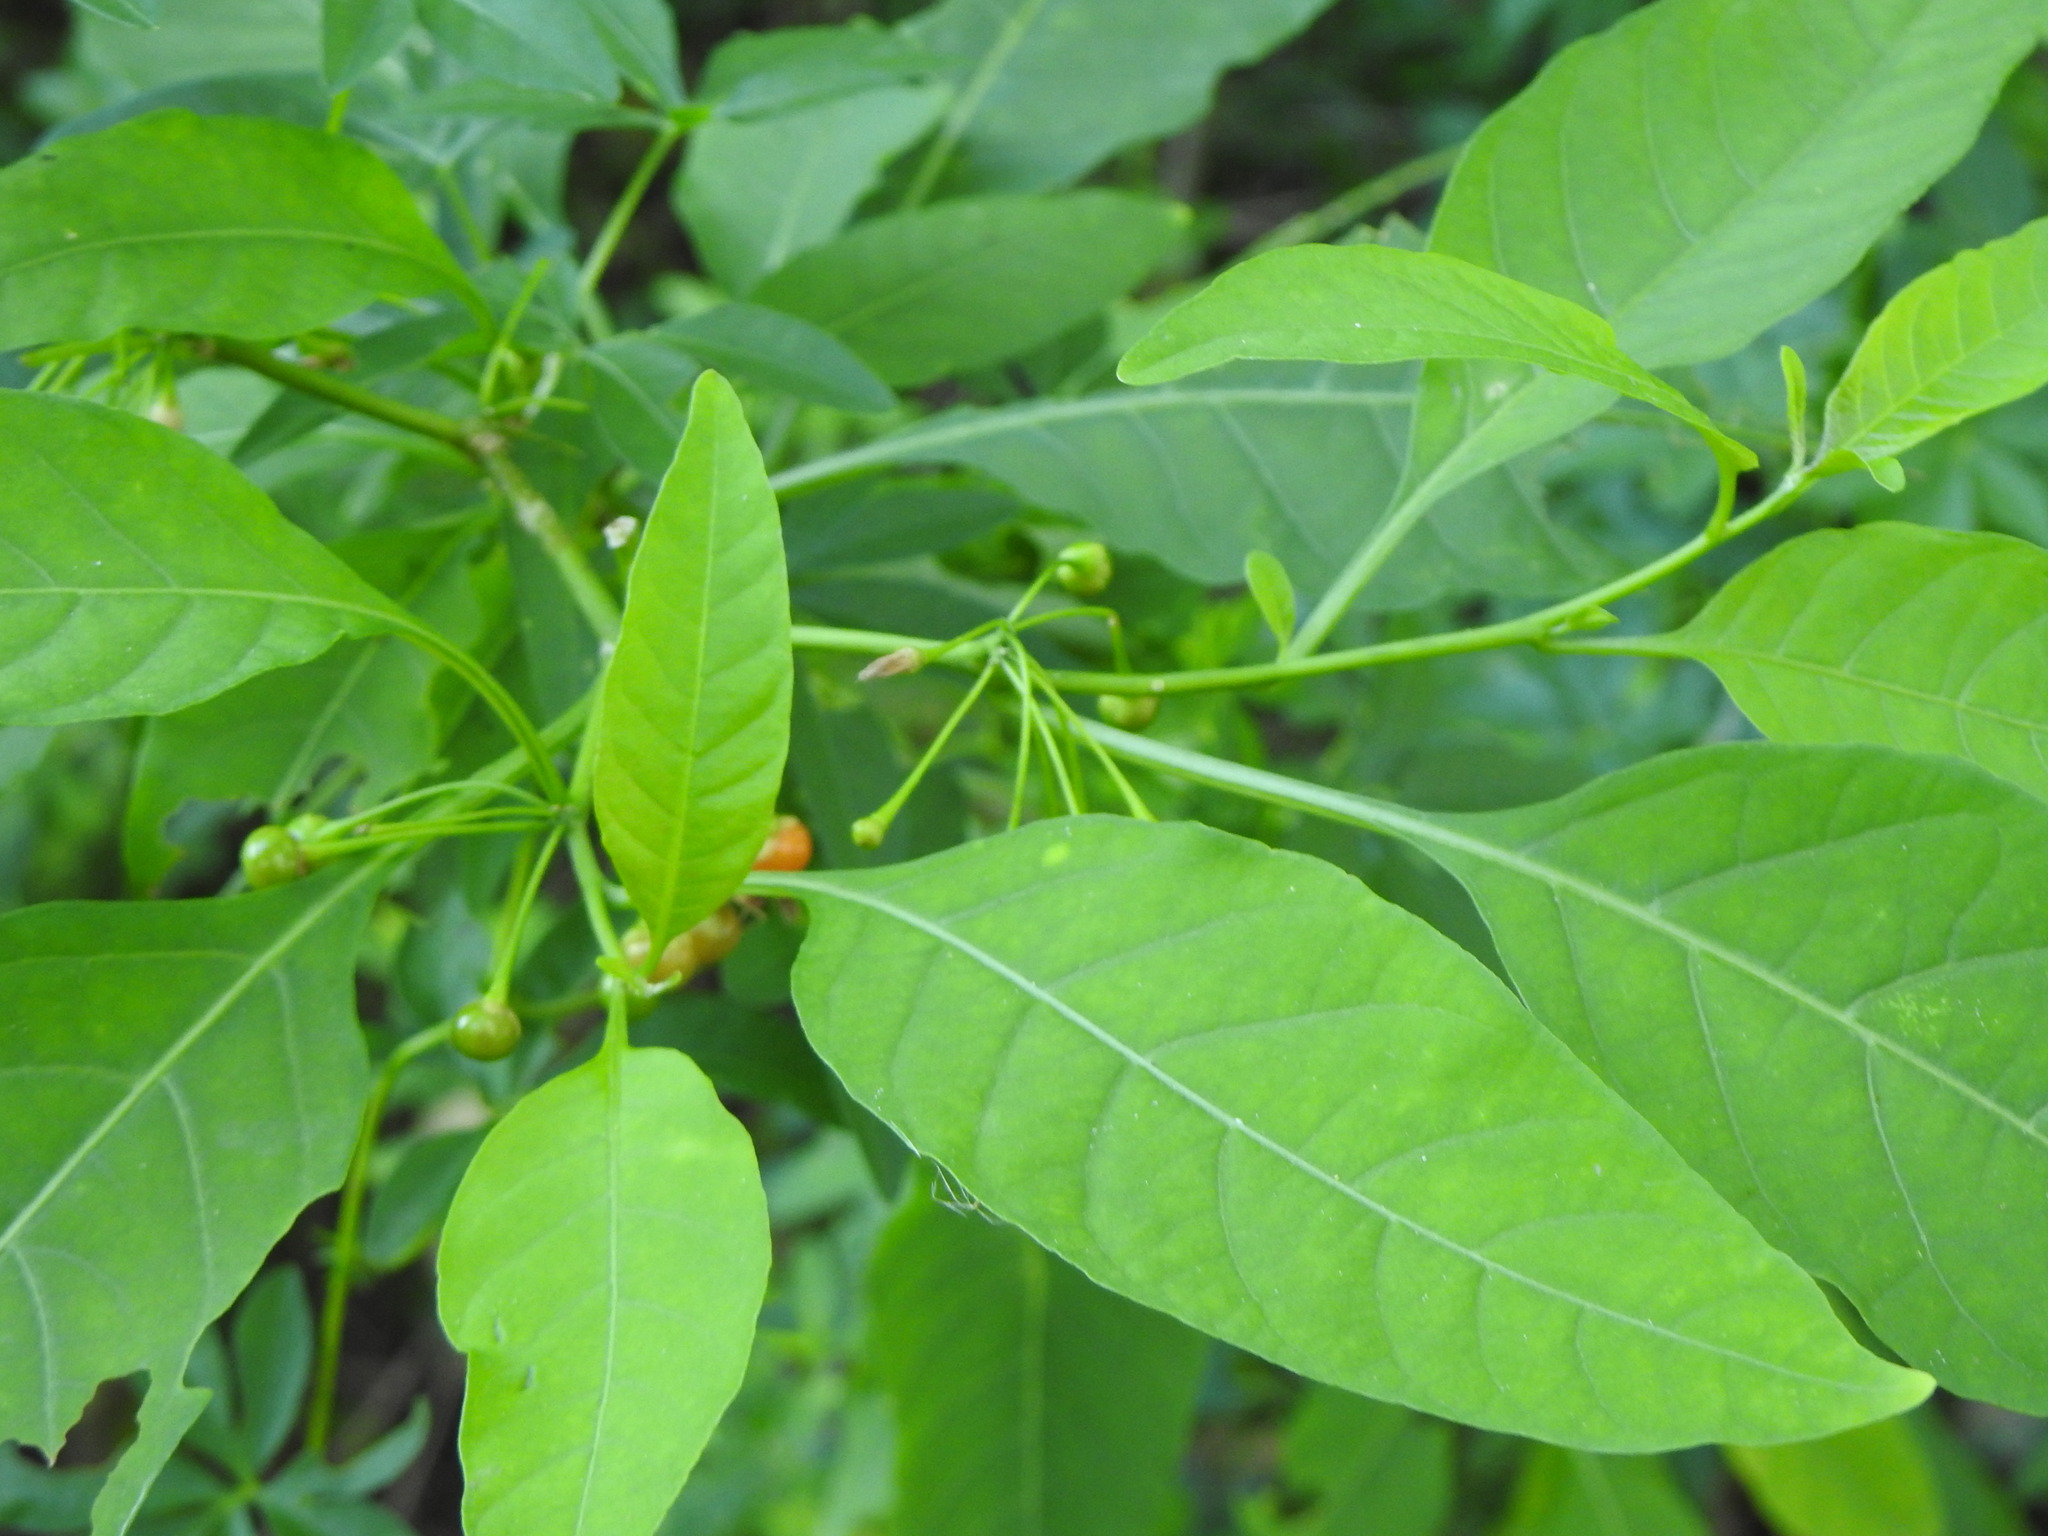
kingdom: Plantae
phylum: Tracheophyta
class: Magnoliopsida
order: Solanales
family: Solanaceae
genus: Vassobia
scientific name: Vassobia breviflora
